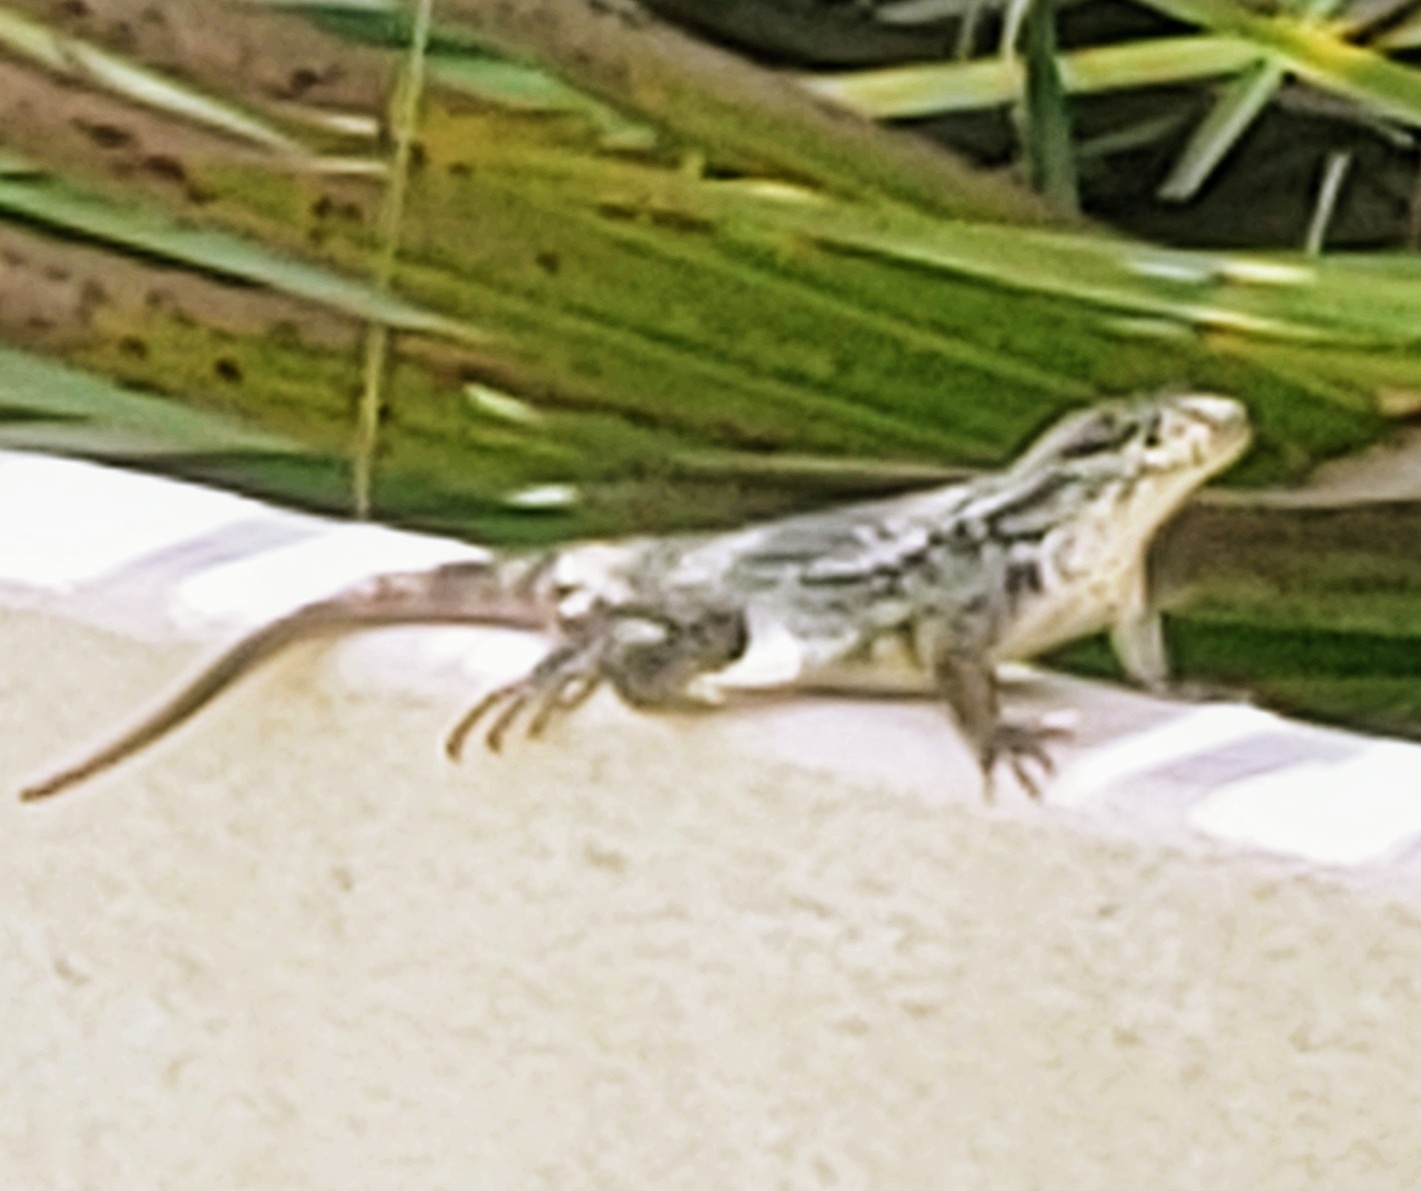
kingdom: Animalia
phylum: Chordata
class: Squamata
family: Leiocephalidae
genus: Leiocephalus
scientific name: Leiocephalus carinatus
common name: Northern curly-tailed lizard
